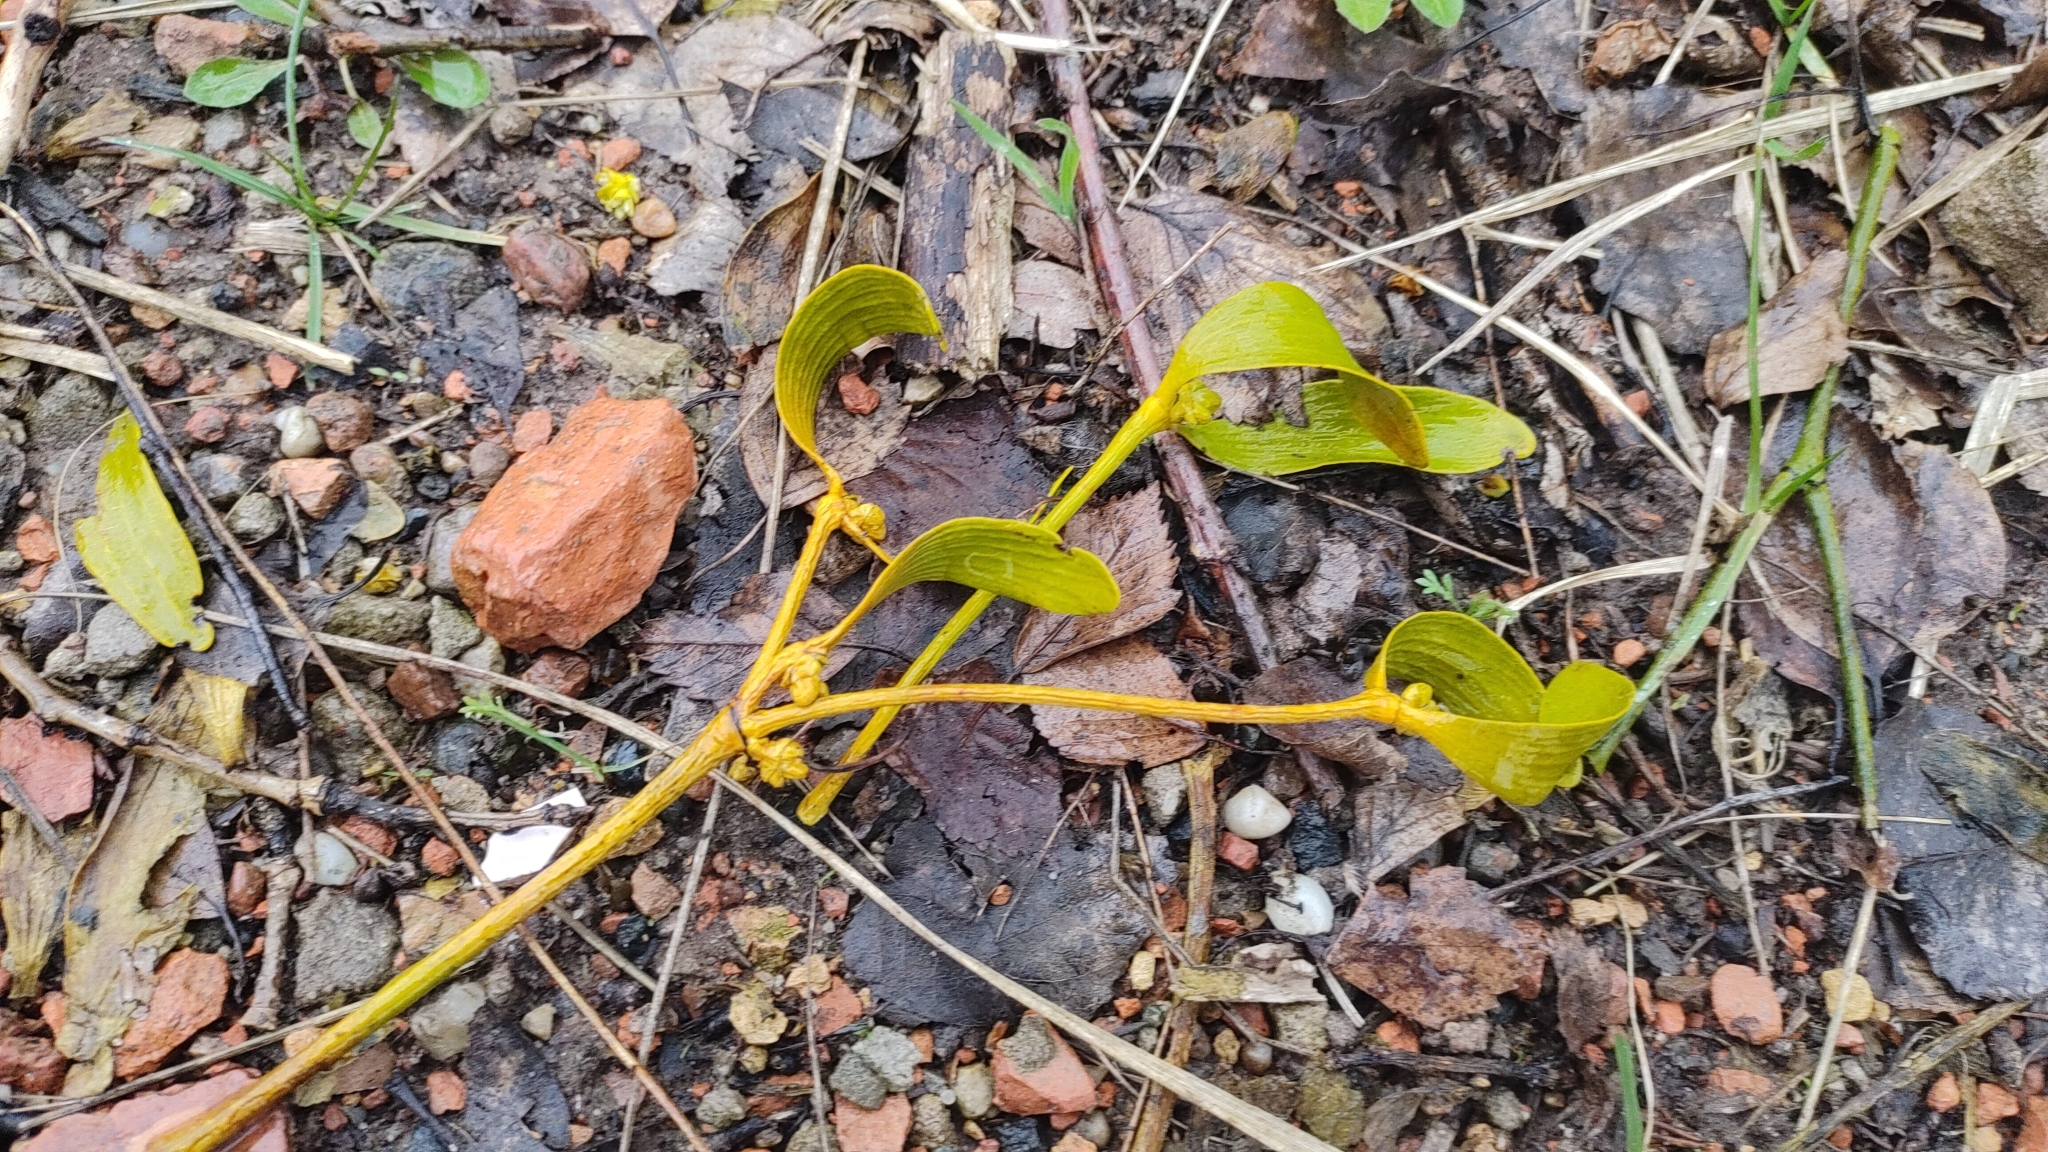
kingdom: Plantae
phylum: Tracheophyta
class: Magnoliopsida
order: Santalales
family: Viscaceae
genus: Viscum
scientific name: Viscum album
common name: Mistletoe
